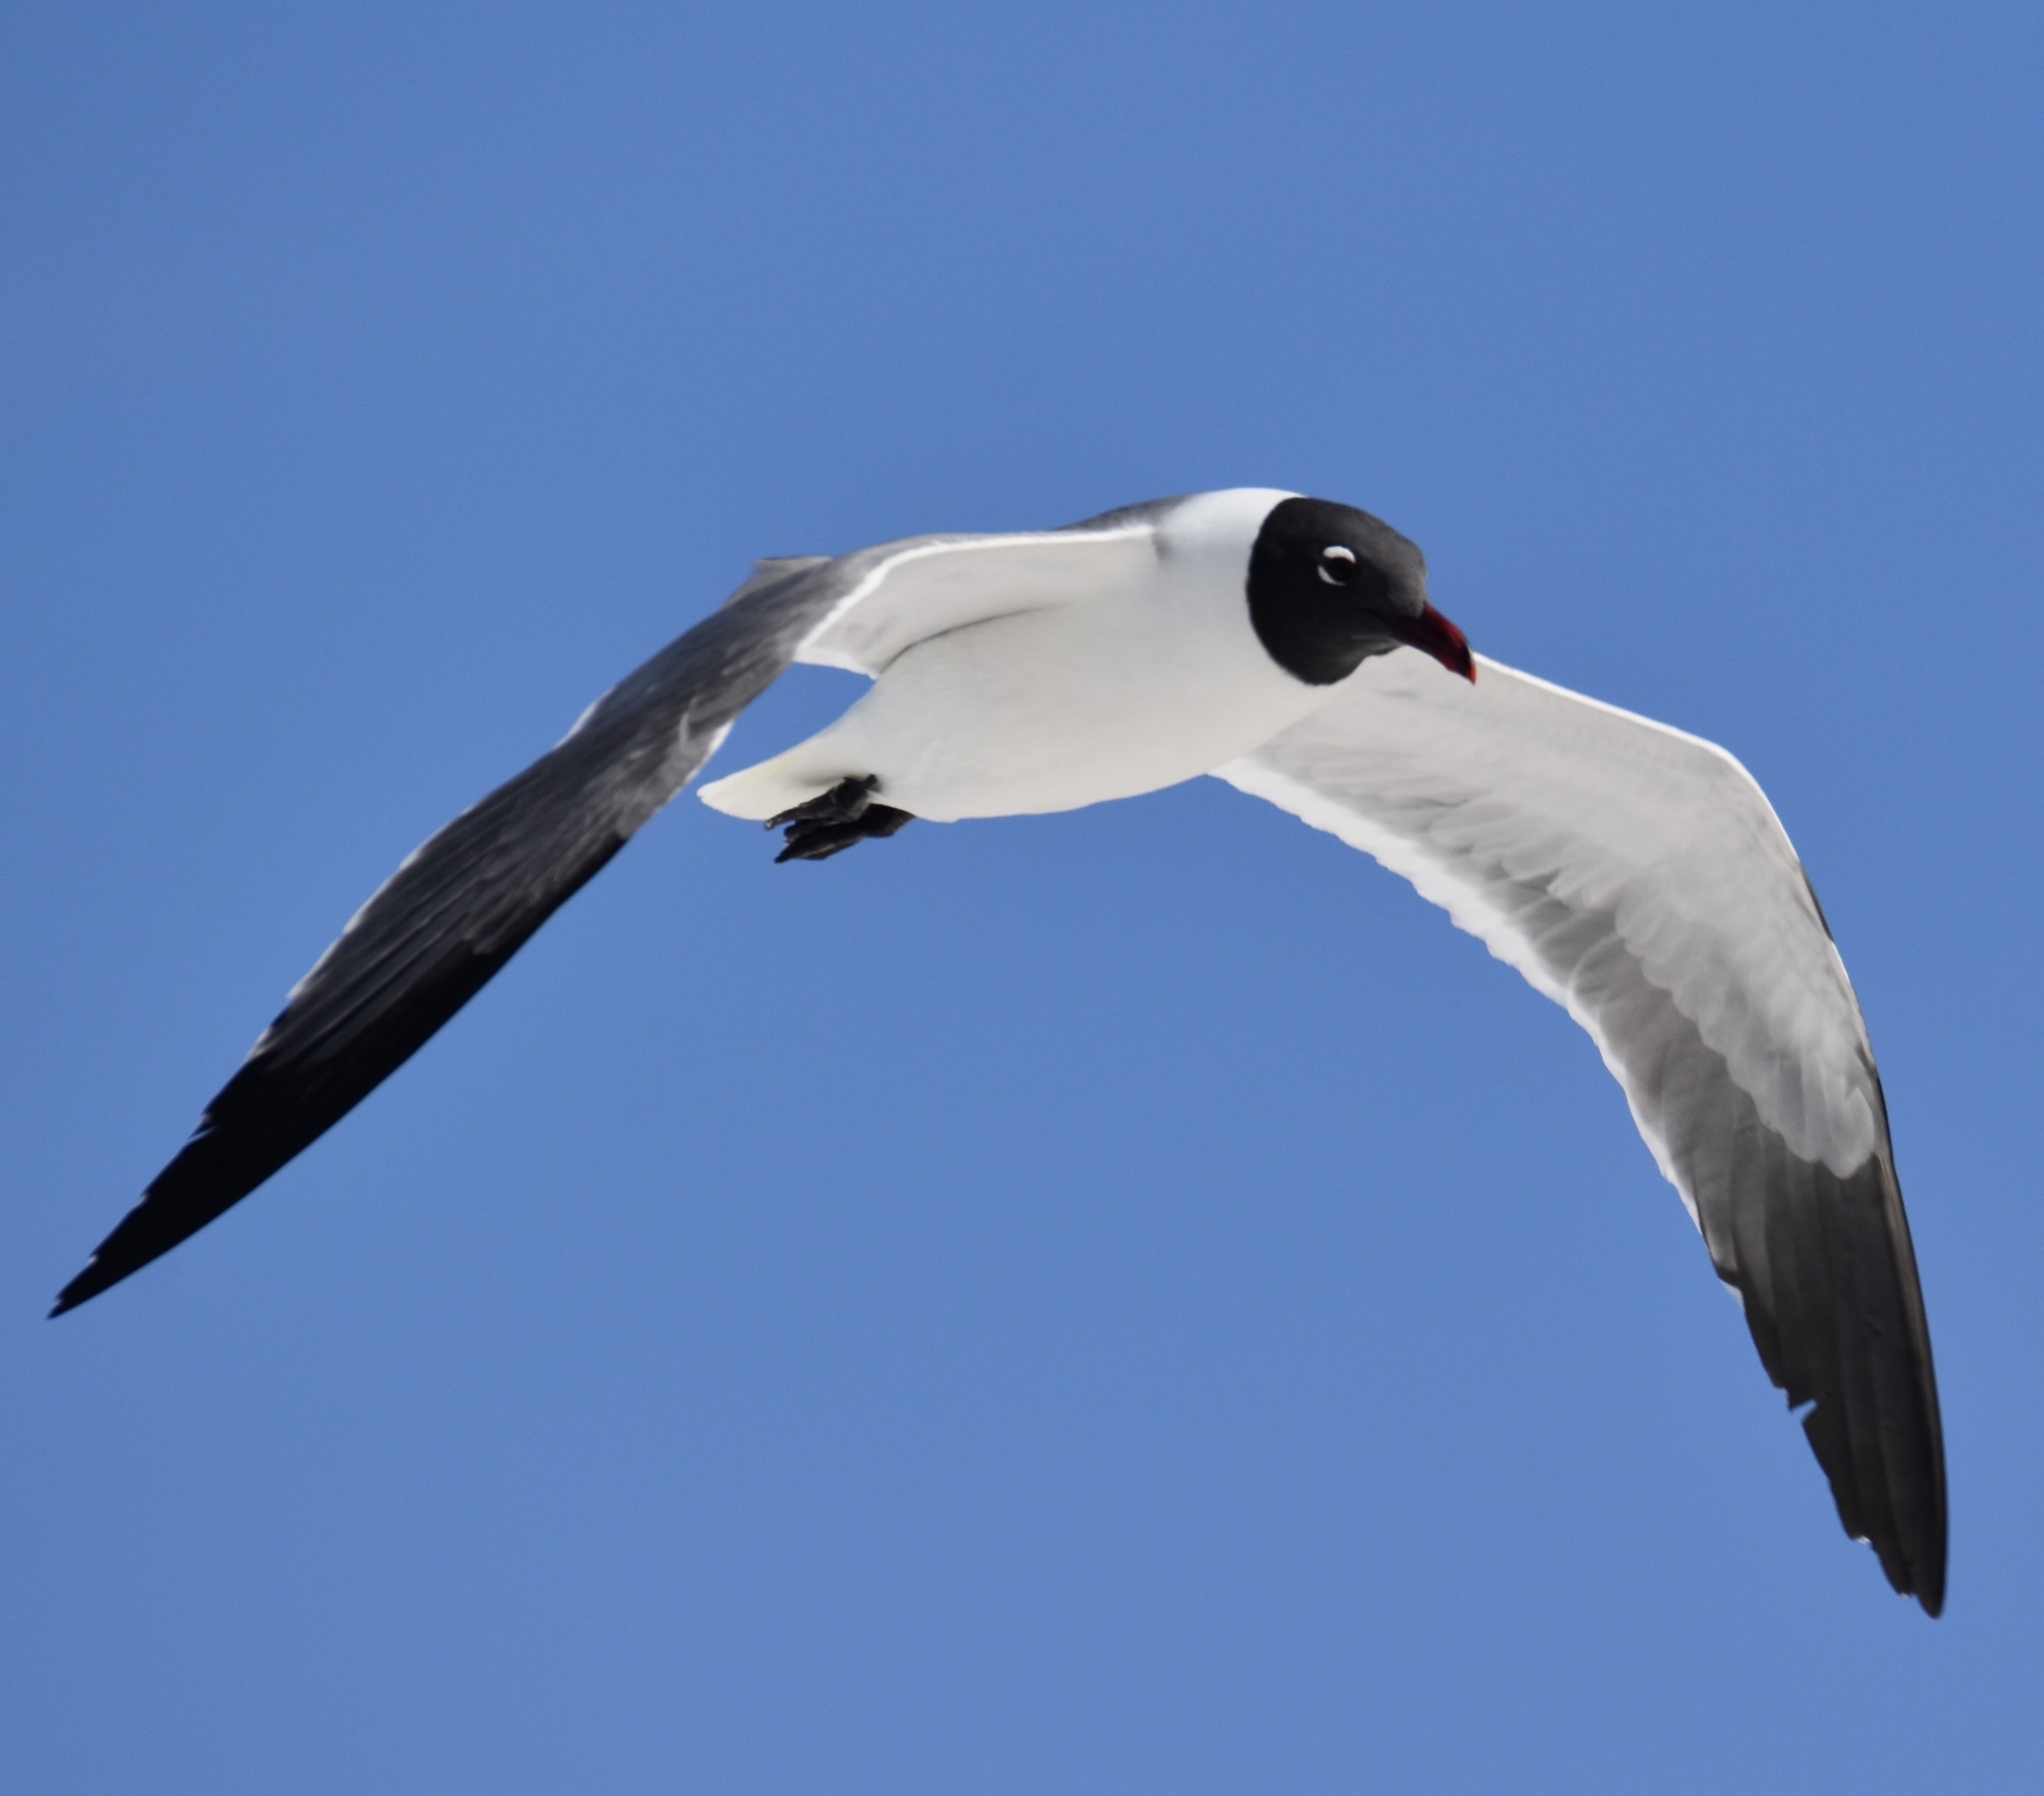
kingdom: Animalia
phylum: Chordata
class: Aves
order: Charadriiformes
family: Laridae
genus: Leucophaeus
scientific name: Leucophaeus atricilla
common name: Laughing gull
